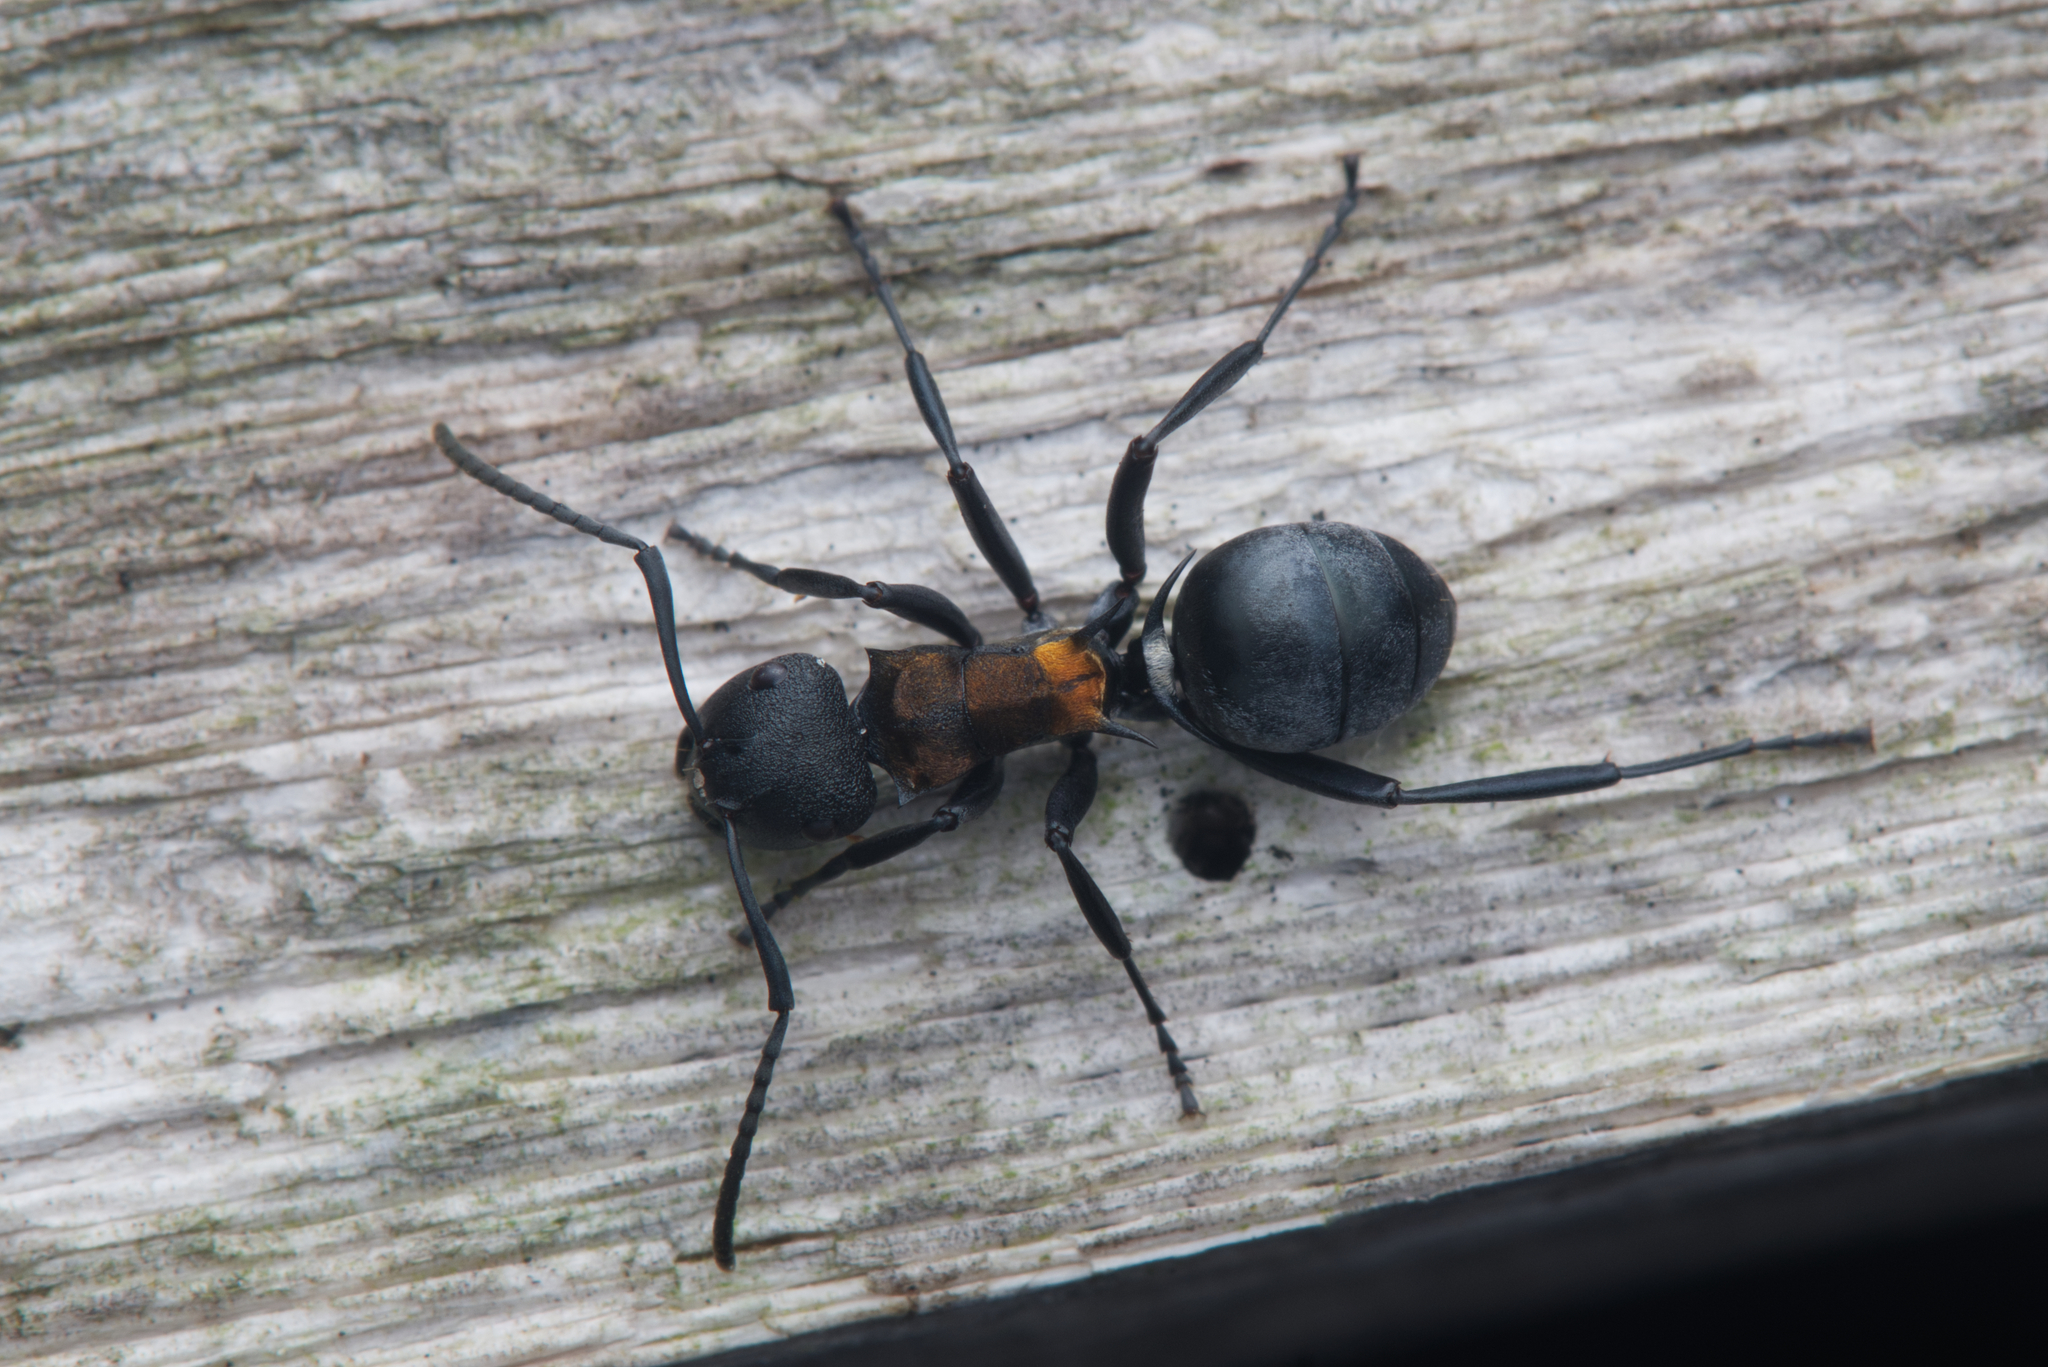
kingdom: Animalia
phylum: Arthropoda
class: Insecta
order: Hymenoptera
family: Formicidae
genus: Polyrhachis
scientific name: Polyrhachis ornata
